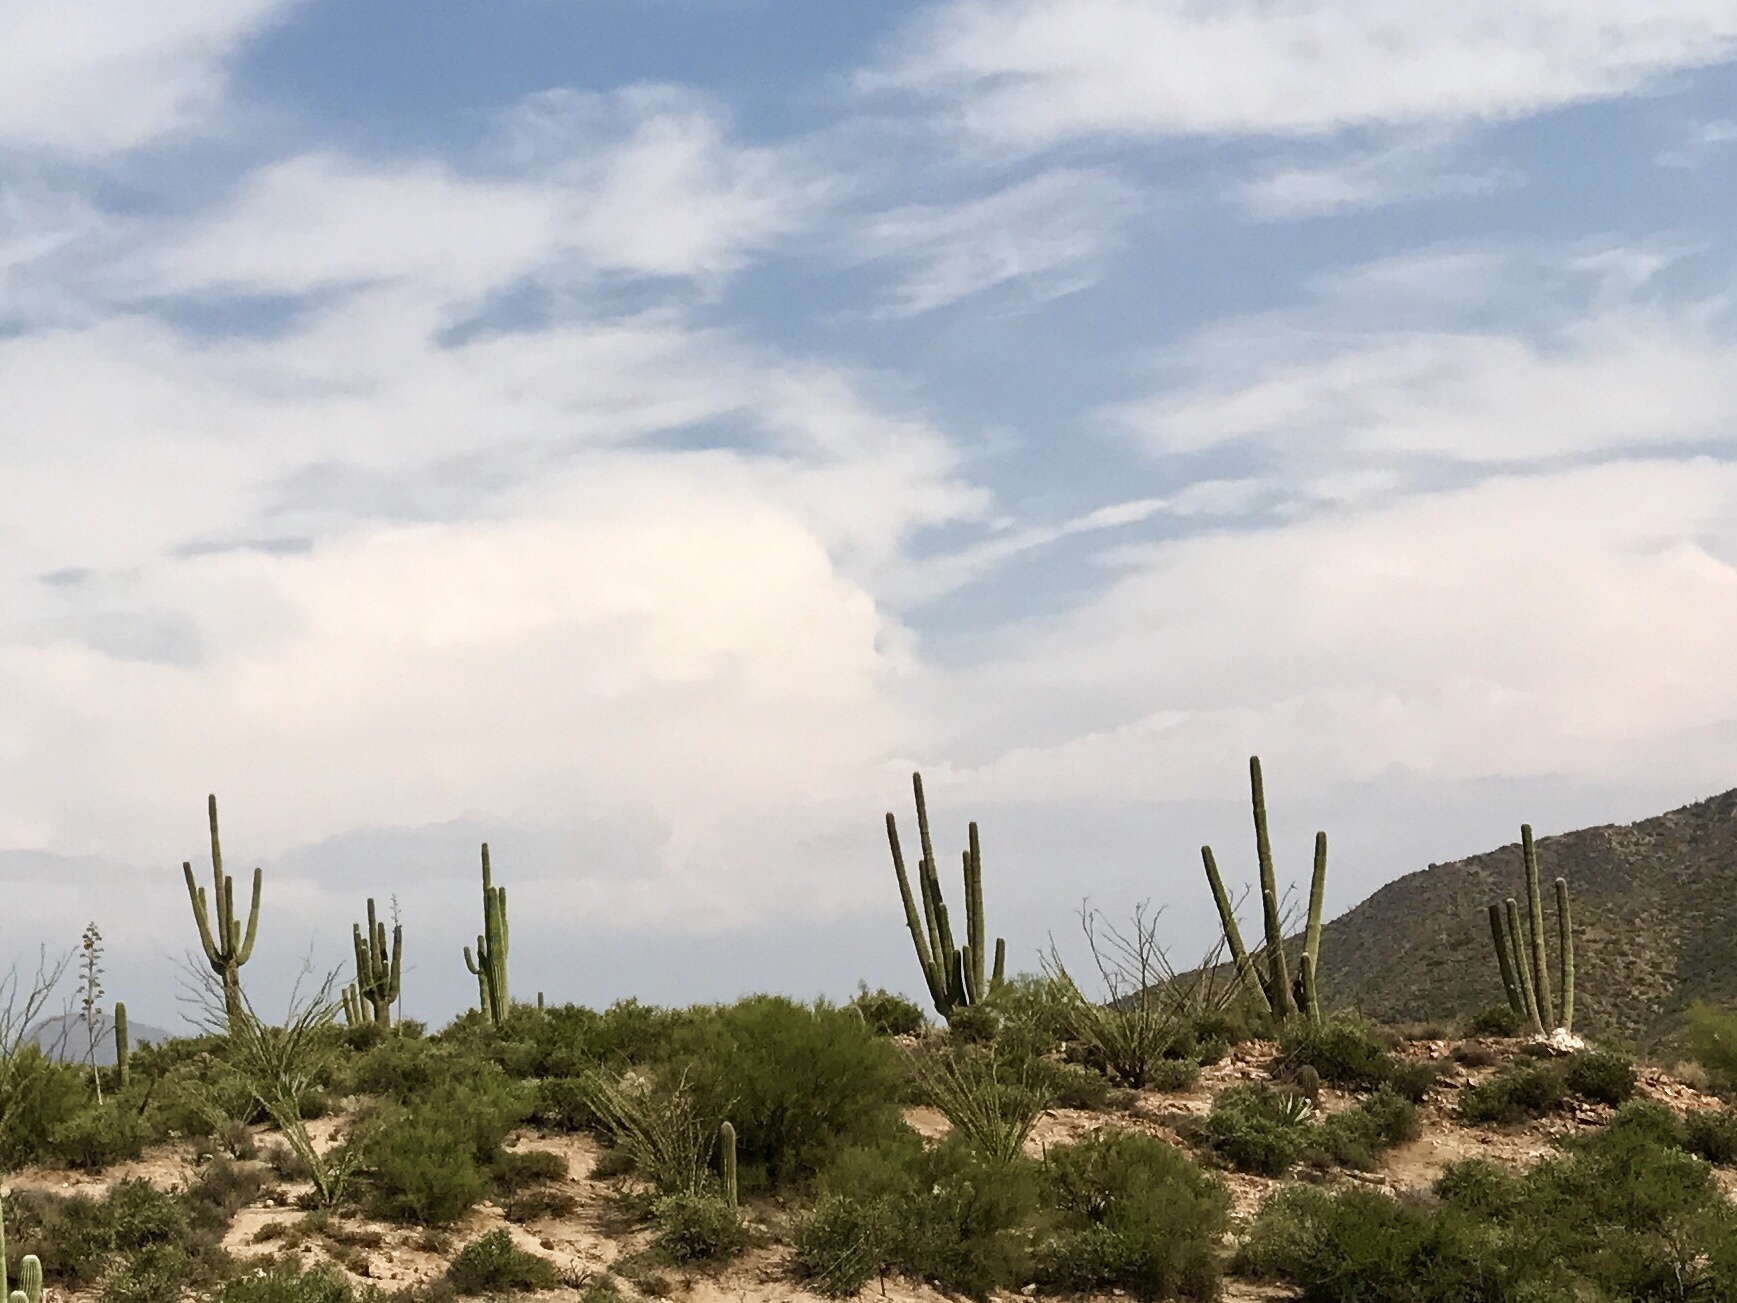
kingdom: Plantae
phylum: Tracheophyta
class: Magnoliopsida
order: Caryophyllales
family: Cactaceae
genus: Carnegiea
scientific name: Carnegiea gigantea
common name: Saguaro
